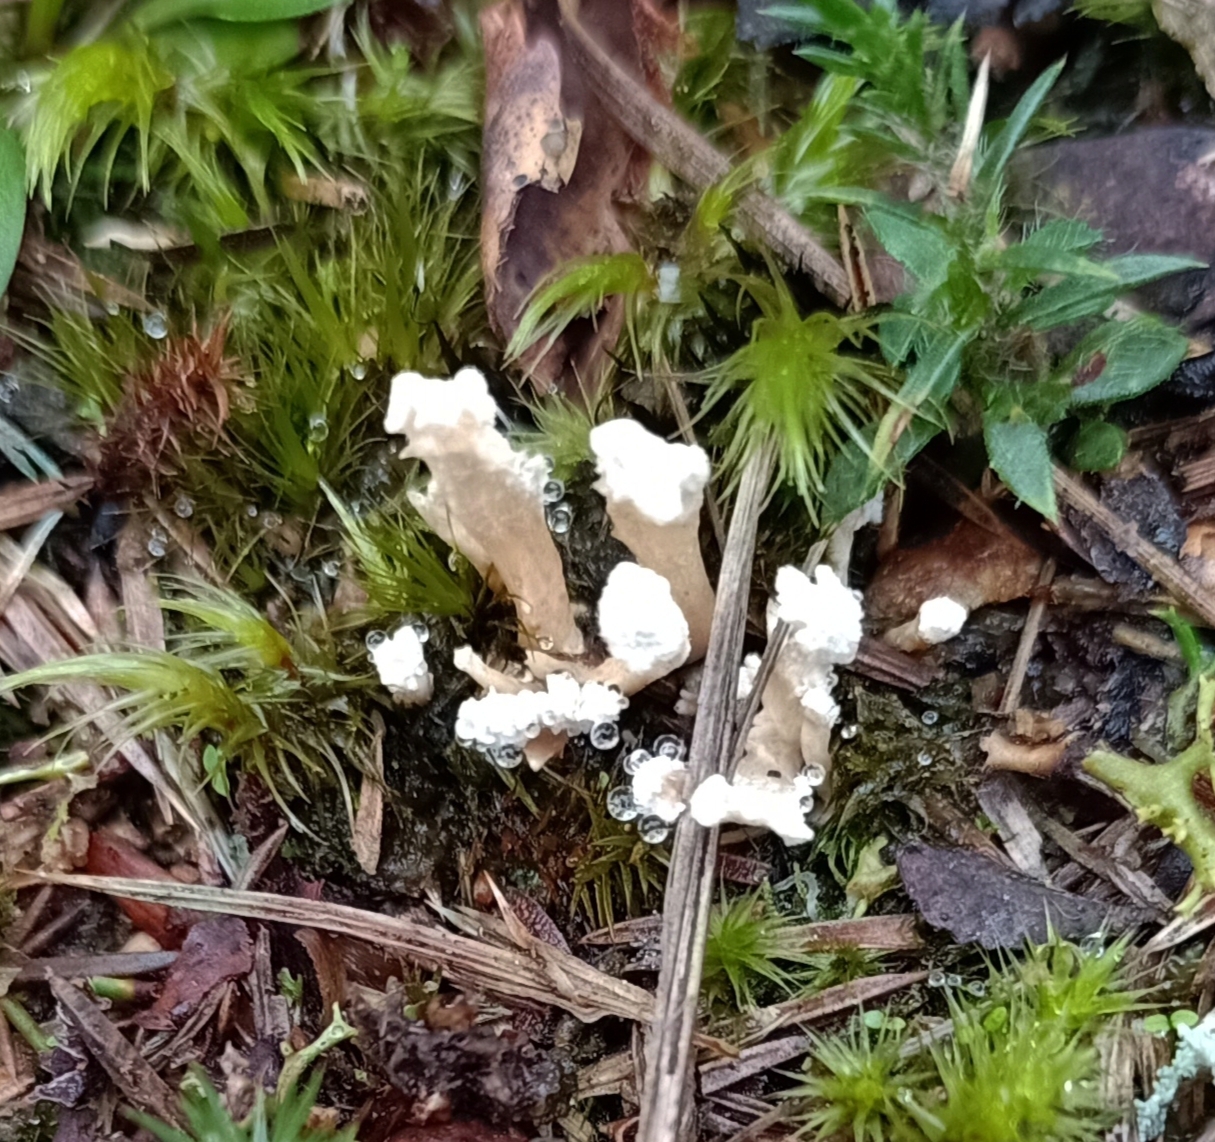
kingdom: Fungi
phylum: Ascomycota
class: Sordariomycetes
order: Hypocreales
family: Cordycipitaceae
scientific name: Cordycipitaceae
